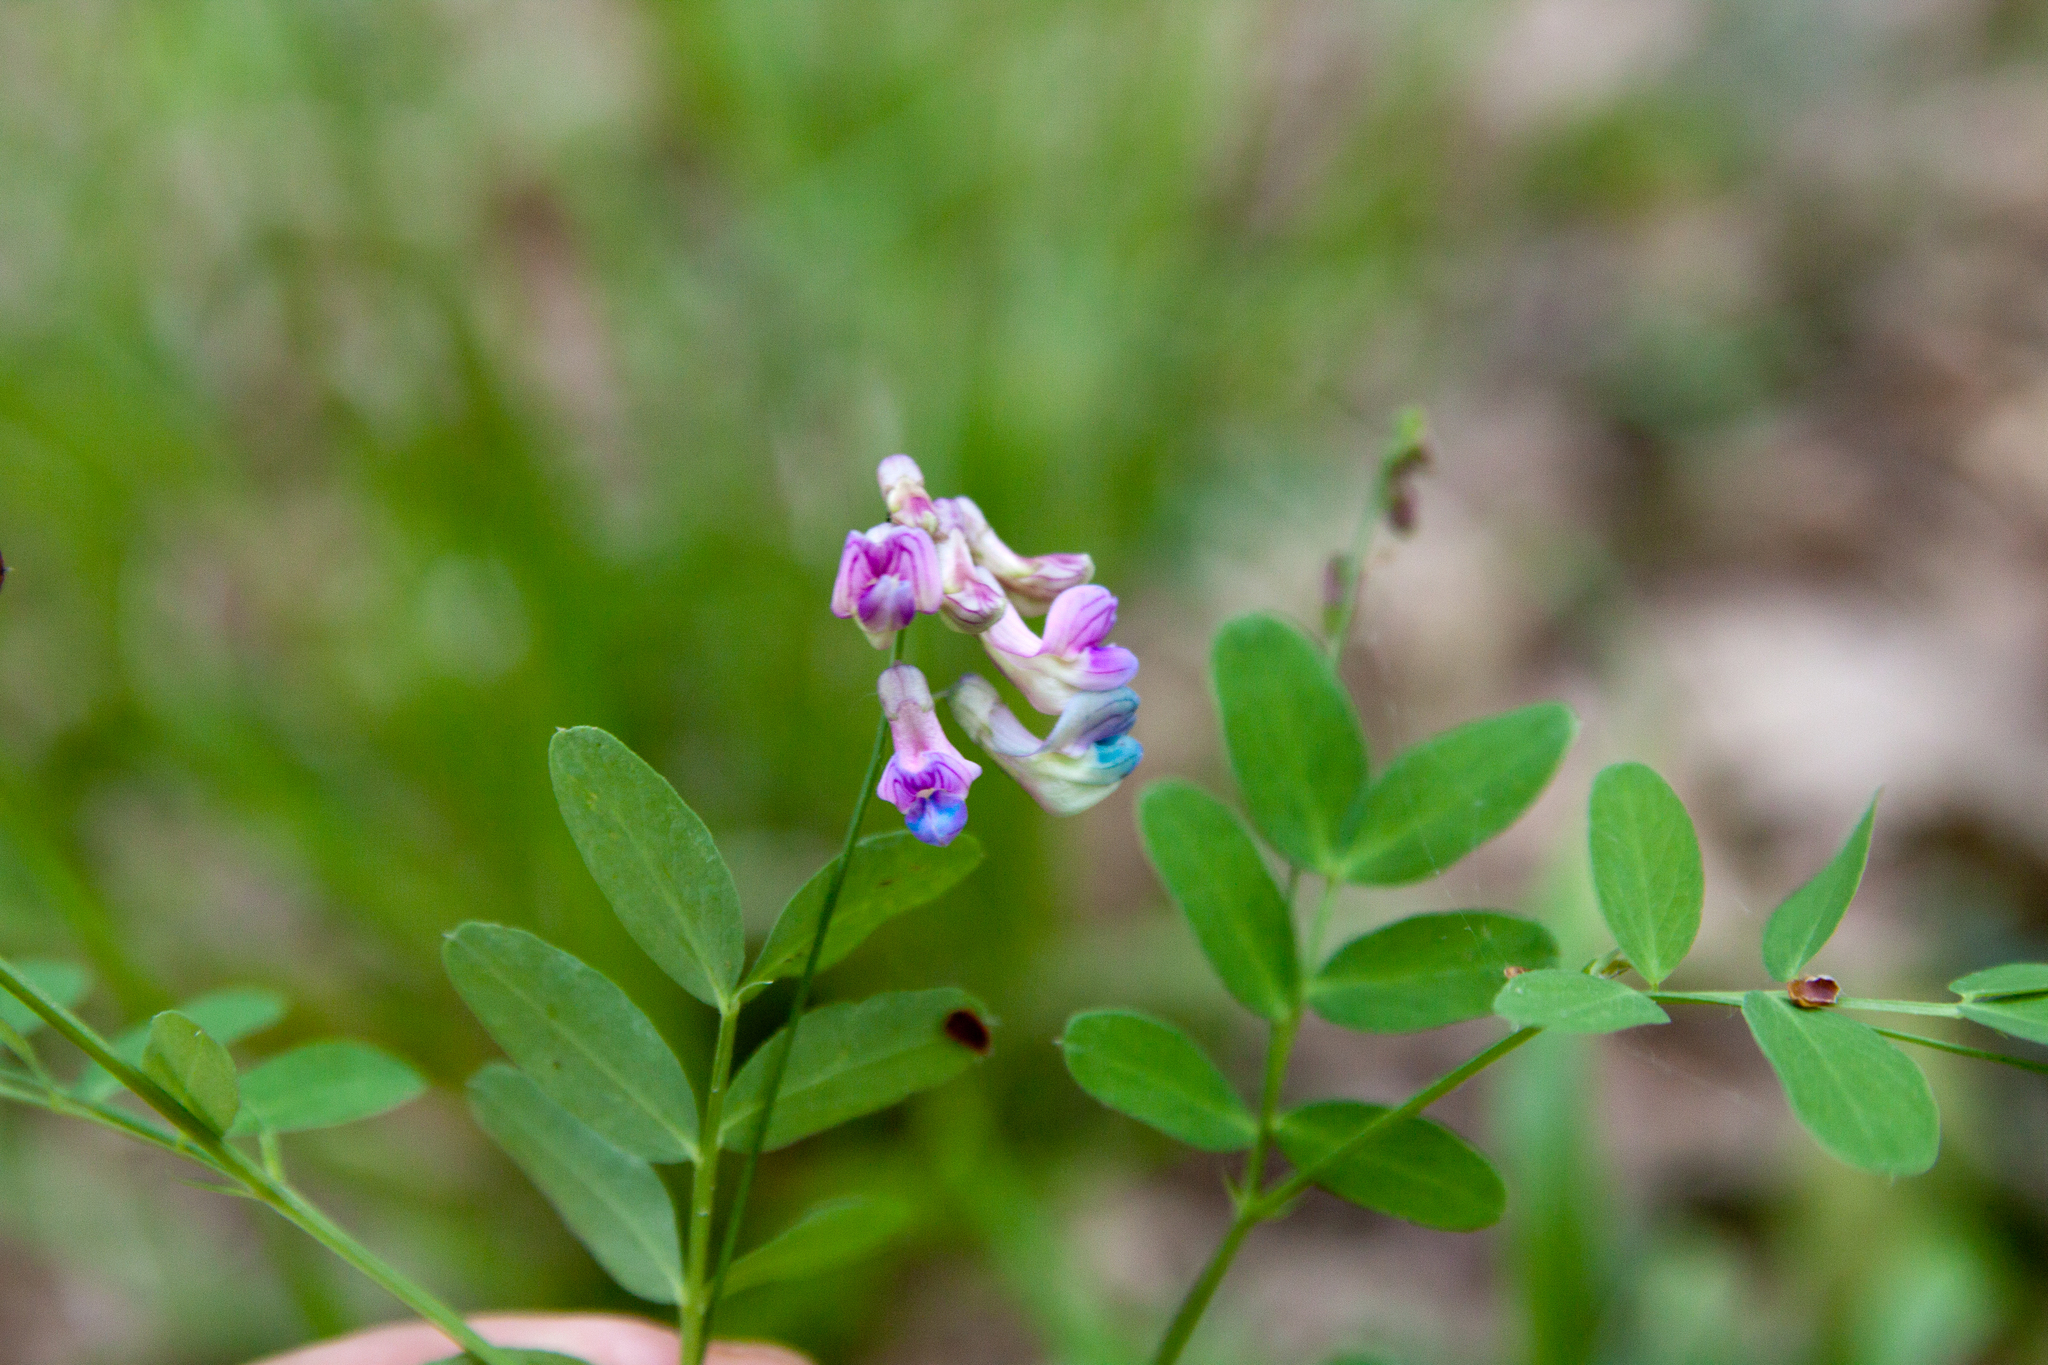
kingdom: Plantae
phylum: Tracheophyta
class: Magnoliopsida
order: Fabales
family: Fabaceae
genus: Lathyrus
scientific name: Lathyrus niger
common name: Black pea
